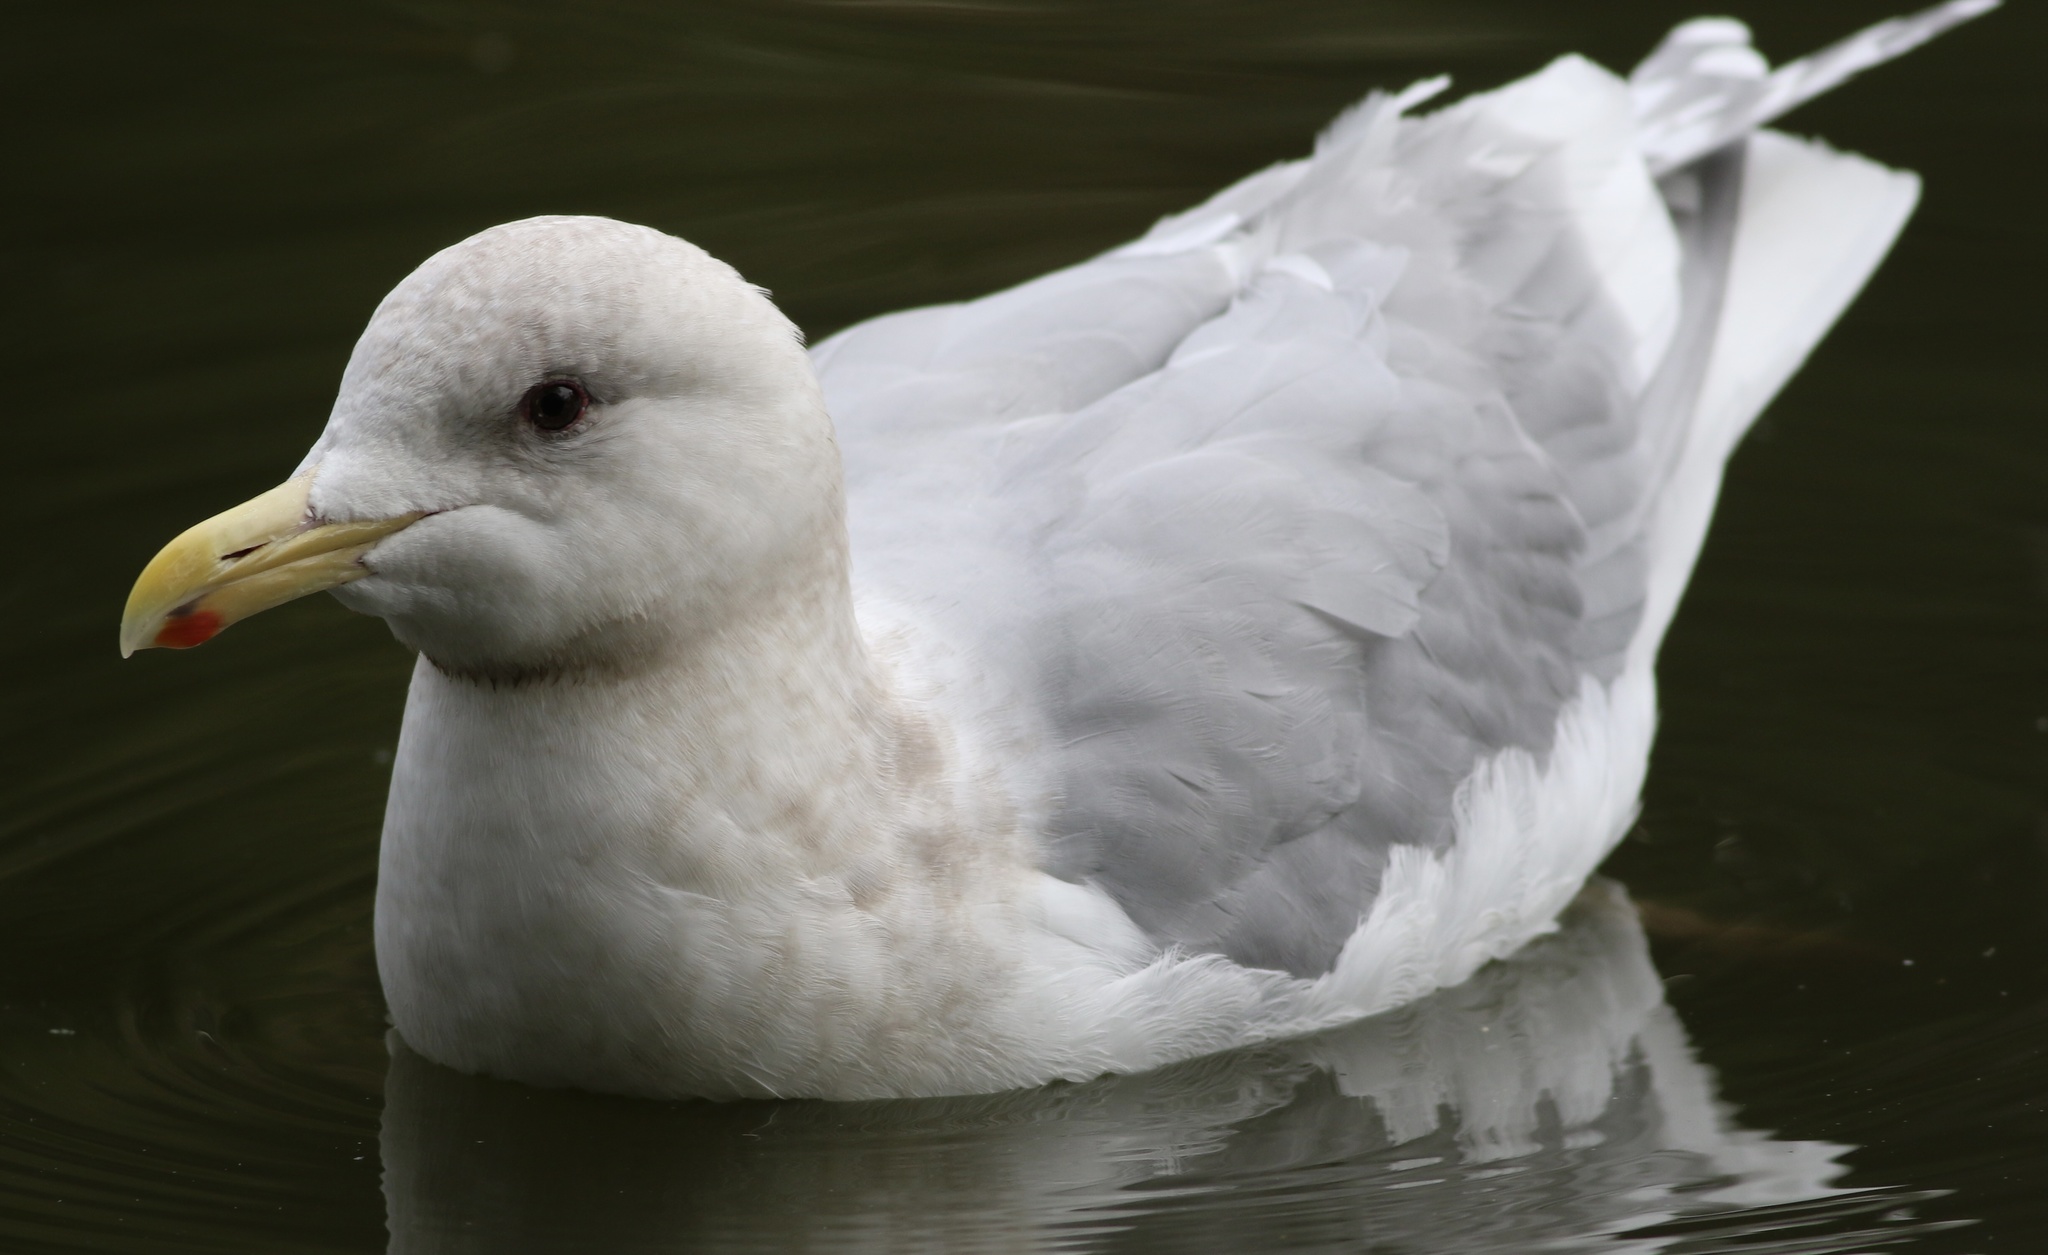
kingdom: Animalia
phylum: Chordata
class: Aves
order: Charadriiformes
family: Laridae
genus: Larus
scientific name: Larus glaucescens
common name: Glaucous-winged gull
